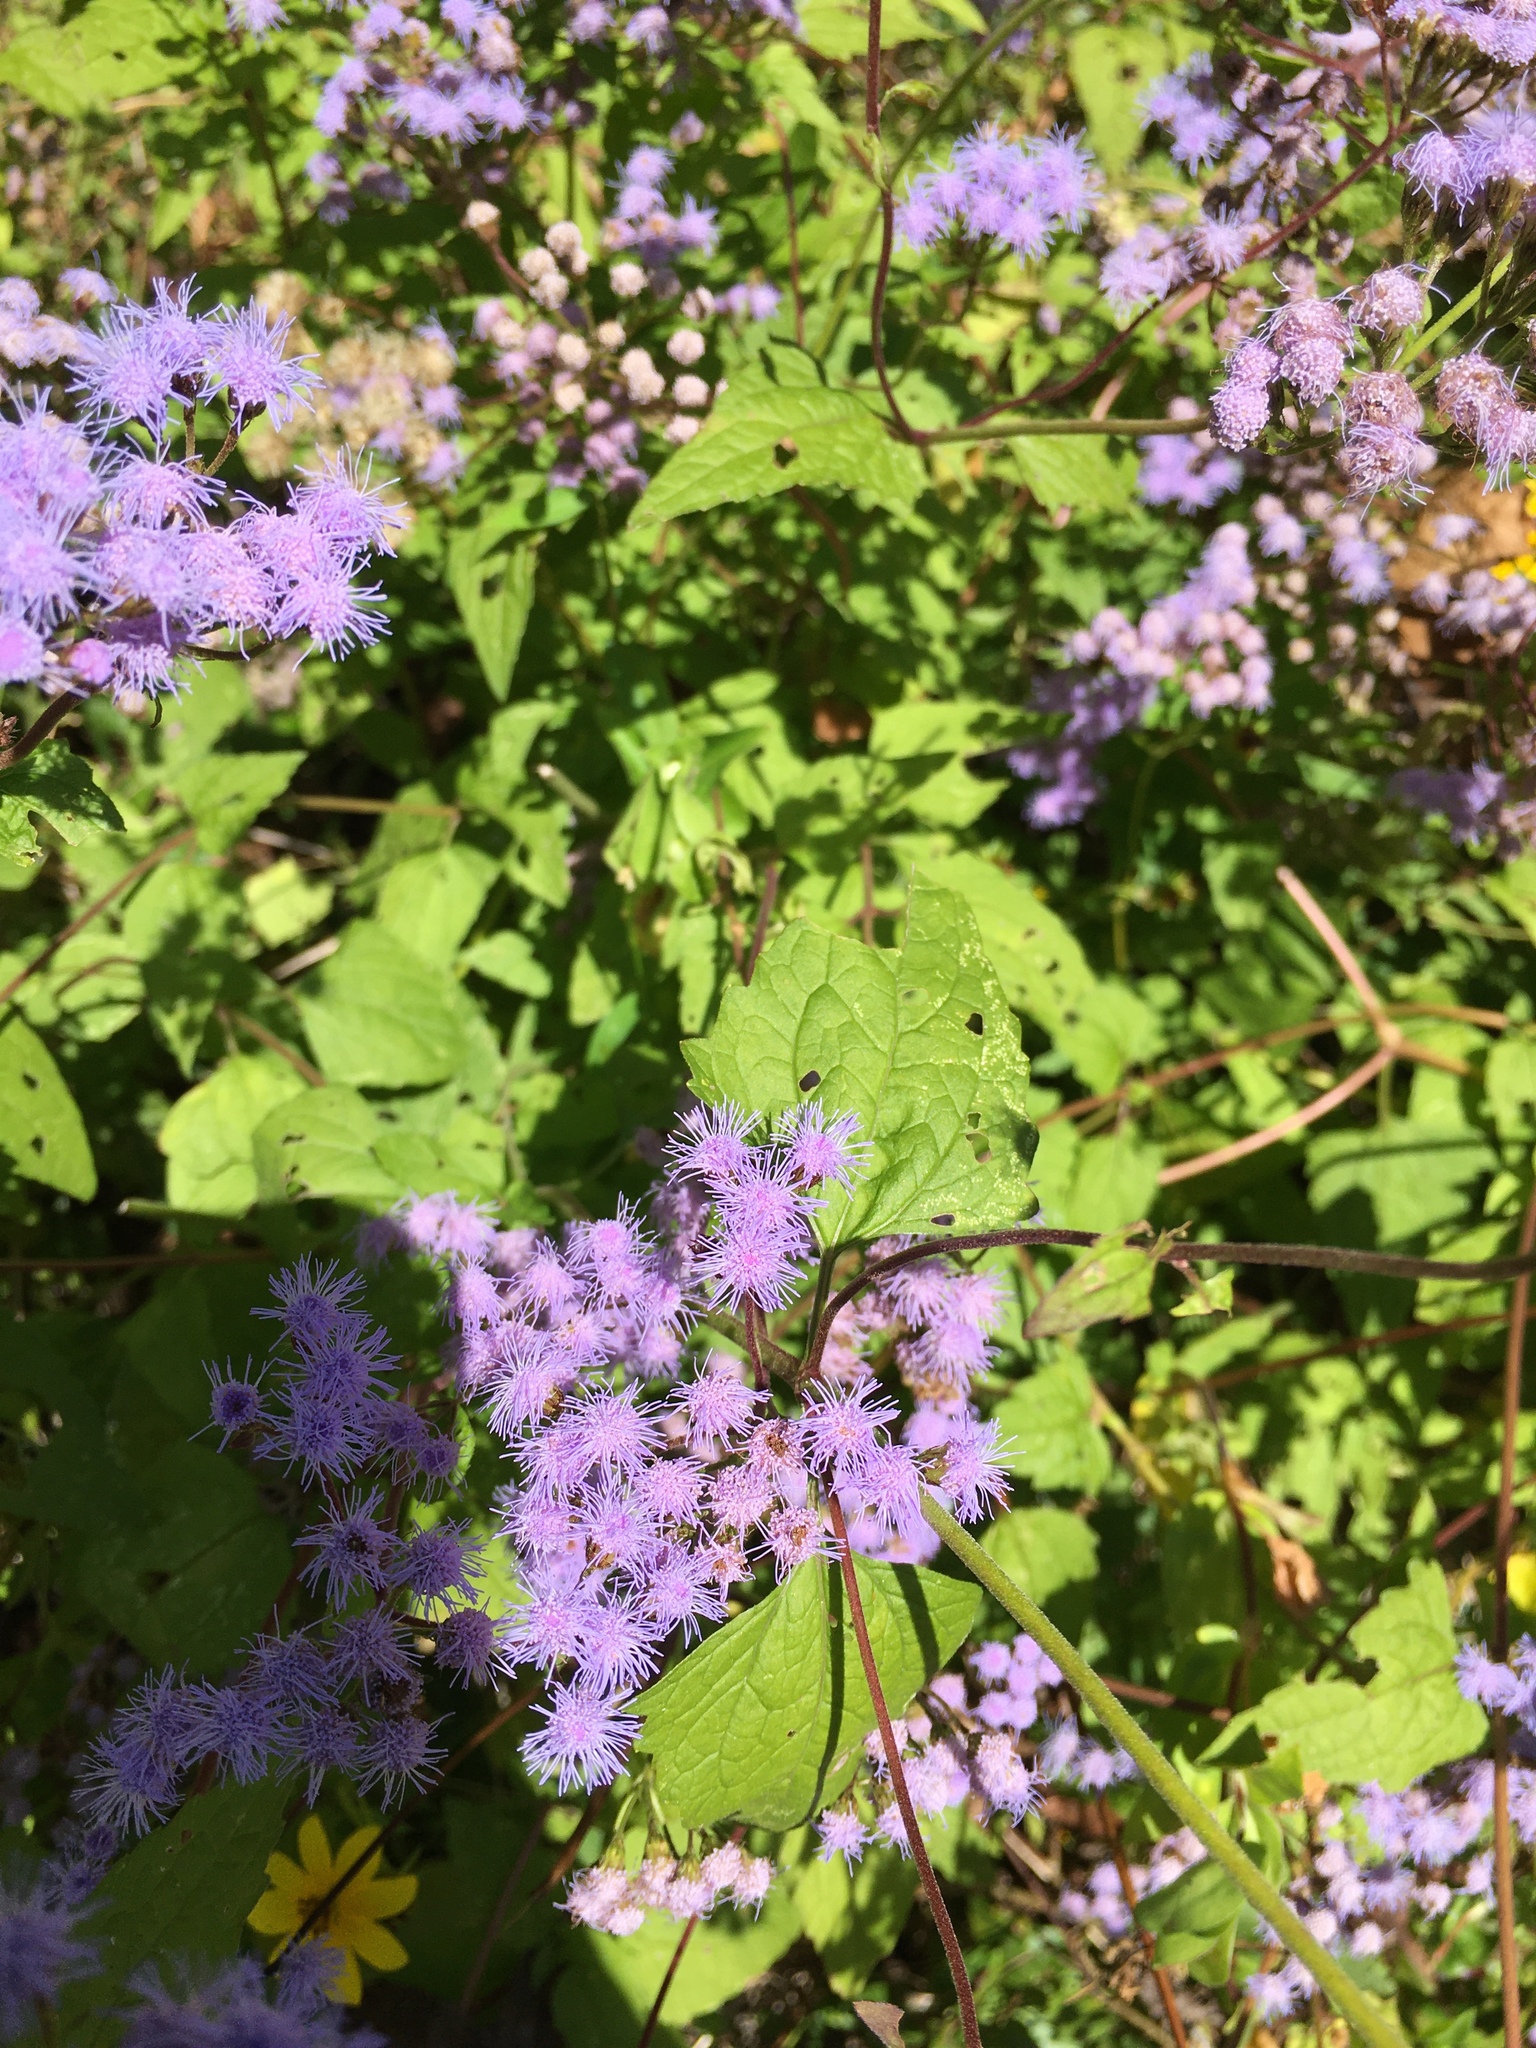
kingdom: Plantae
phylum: Tracheophyta
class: Magnoliopsida
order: Asterales
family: Asteraceae
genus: Conoclinium
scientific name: Conoclinium coelestinum
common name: Blue mistflower
